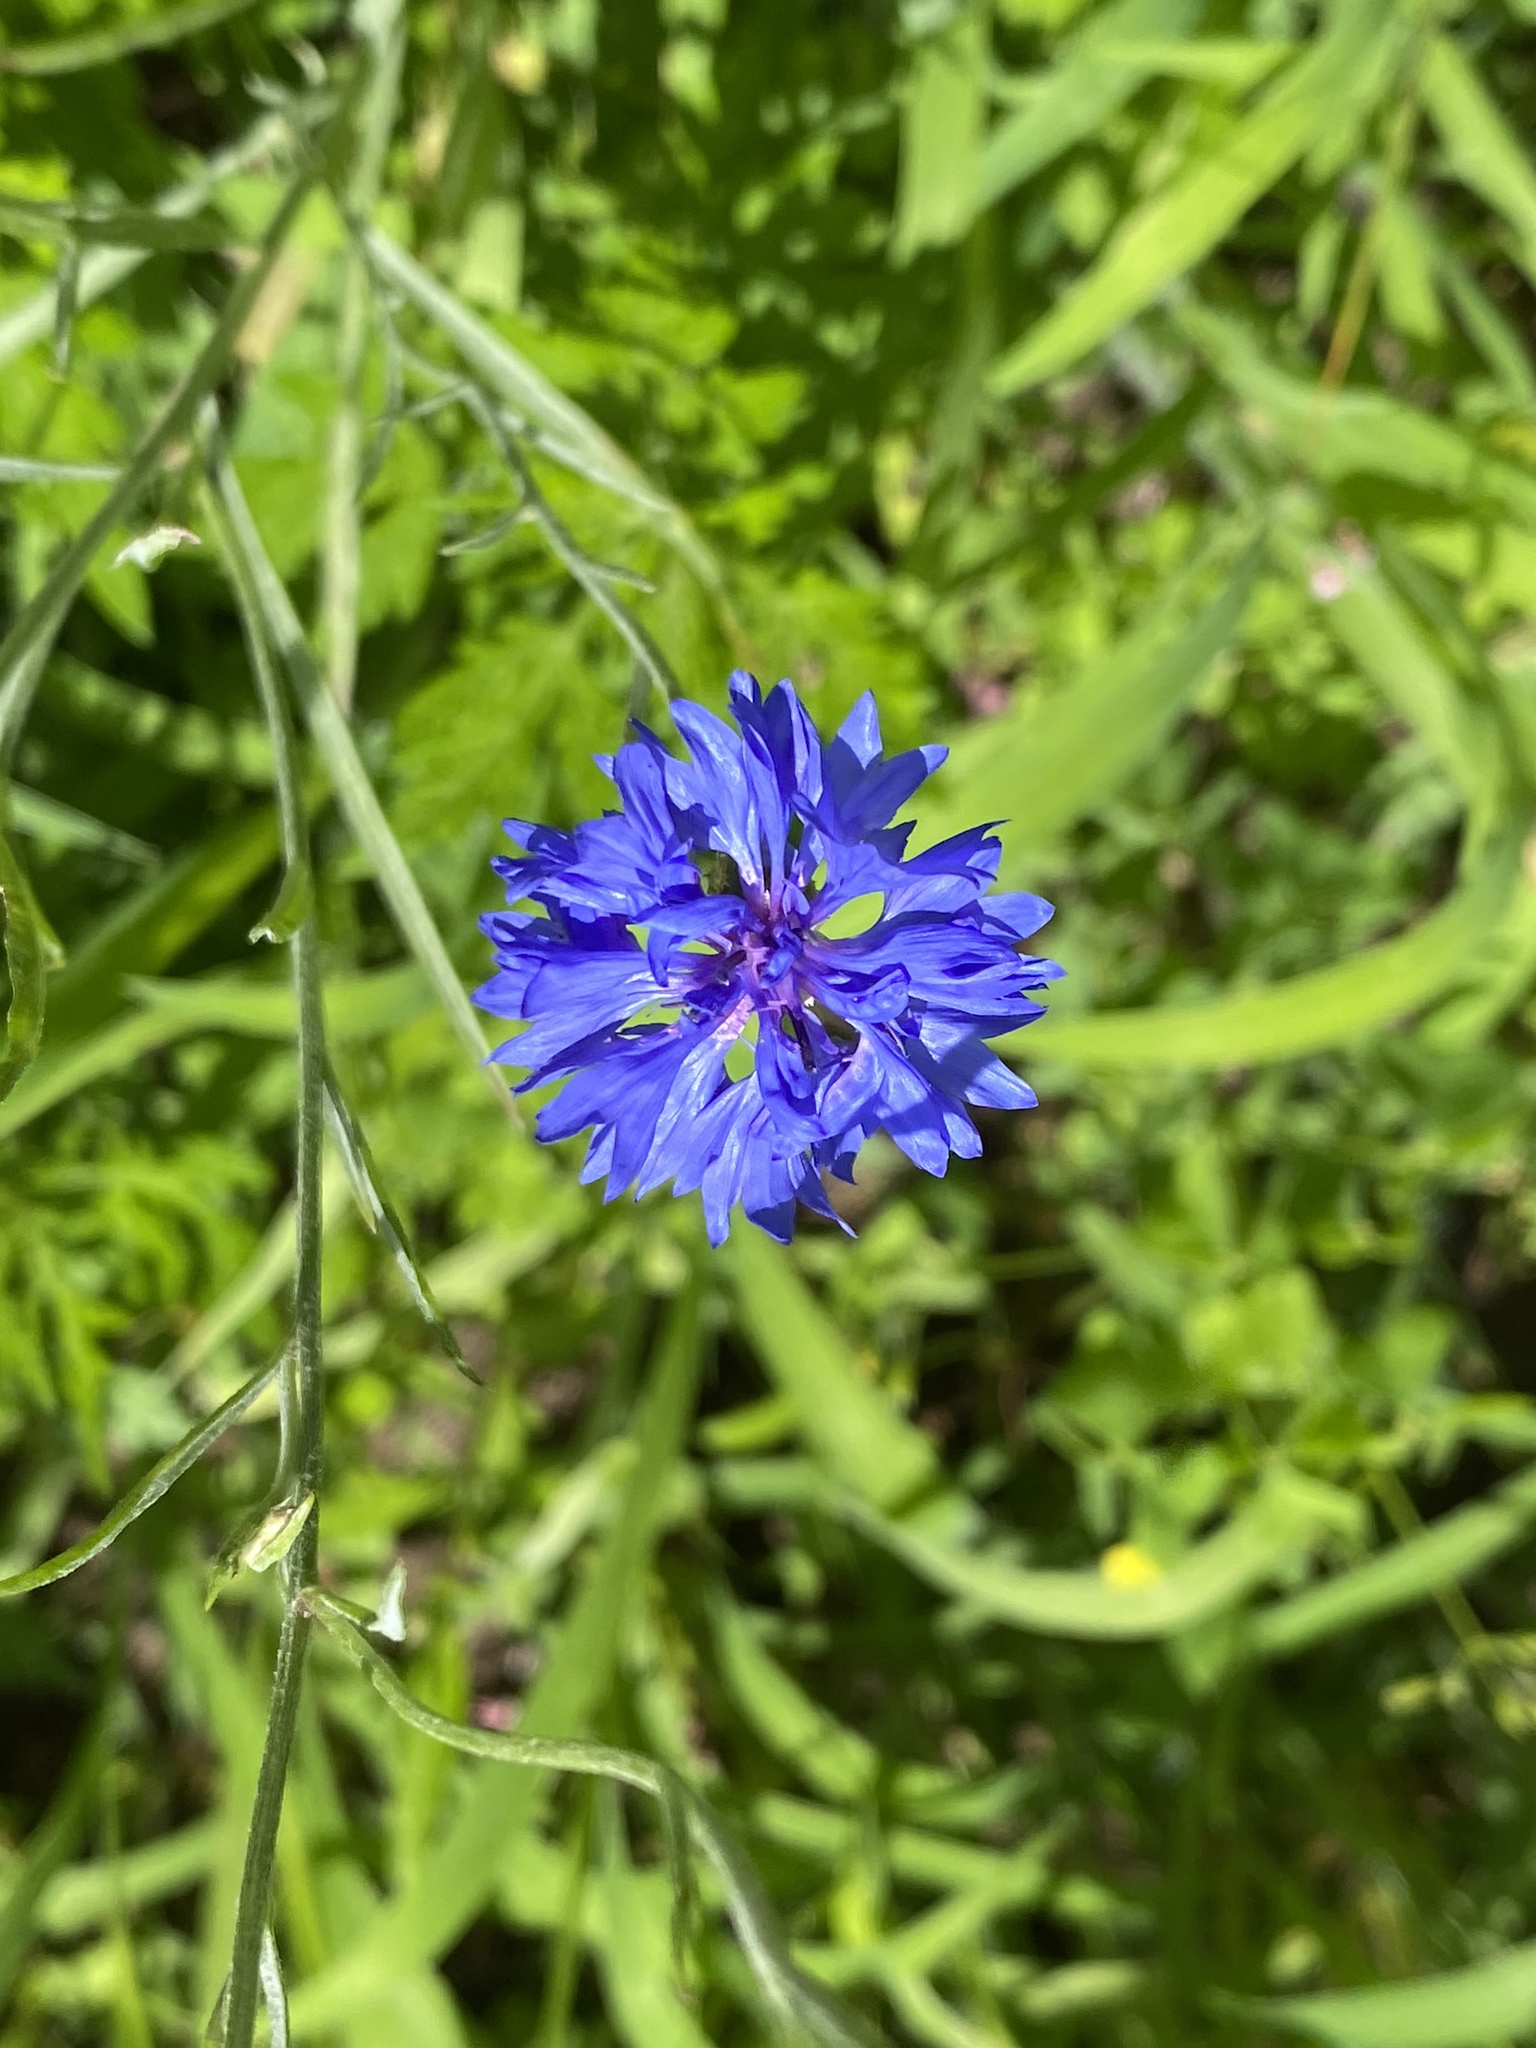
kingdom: Plantae
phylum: Tracheophyta
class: Magnoliopsida
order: Asterales
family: Asteraceae
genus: Centaurea
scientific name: Centaurea cyanus
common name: Cornflower
